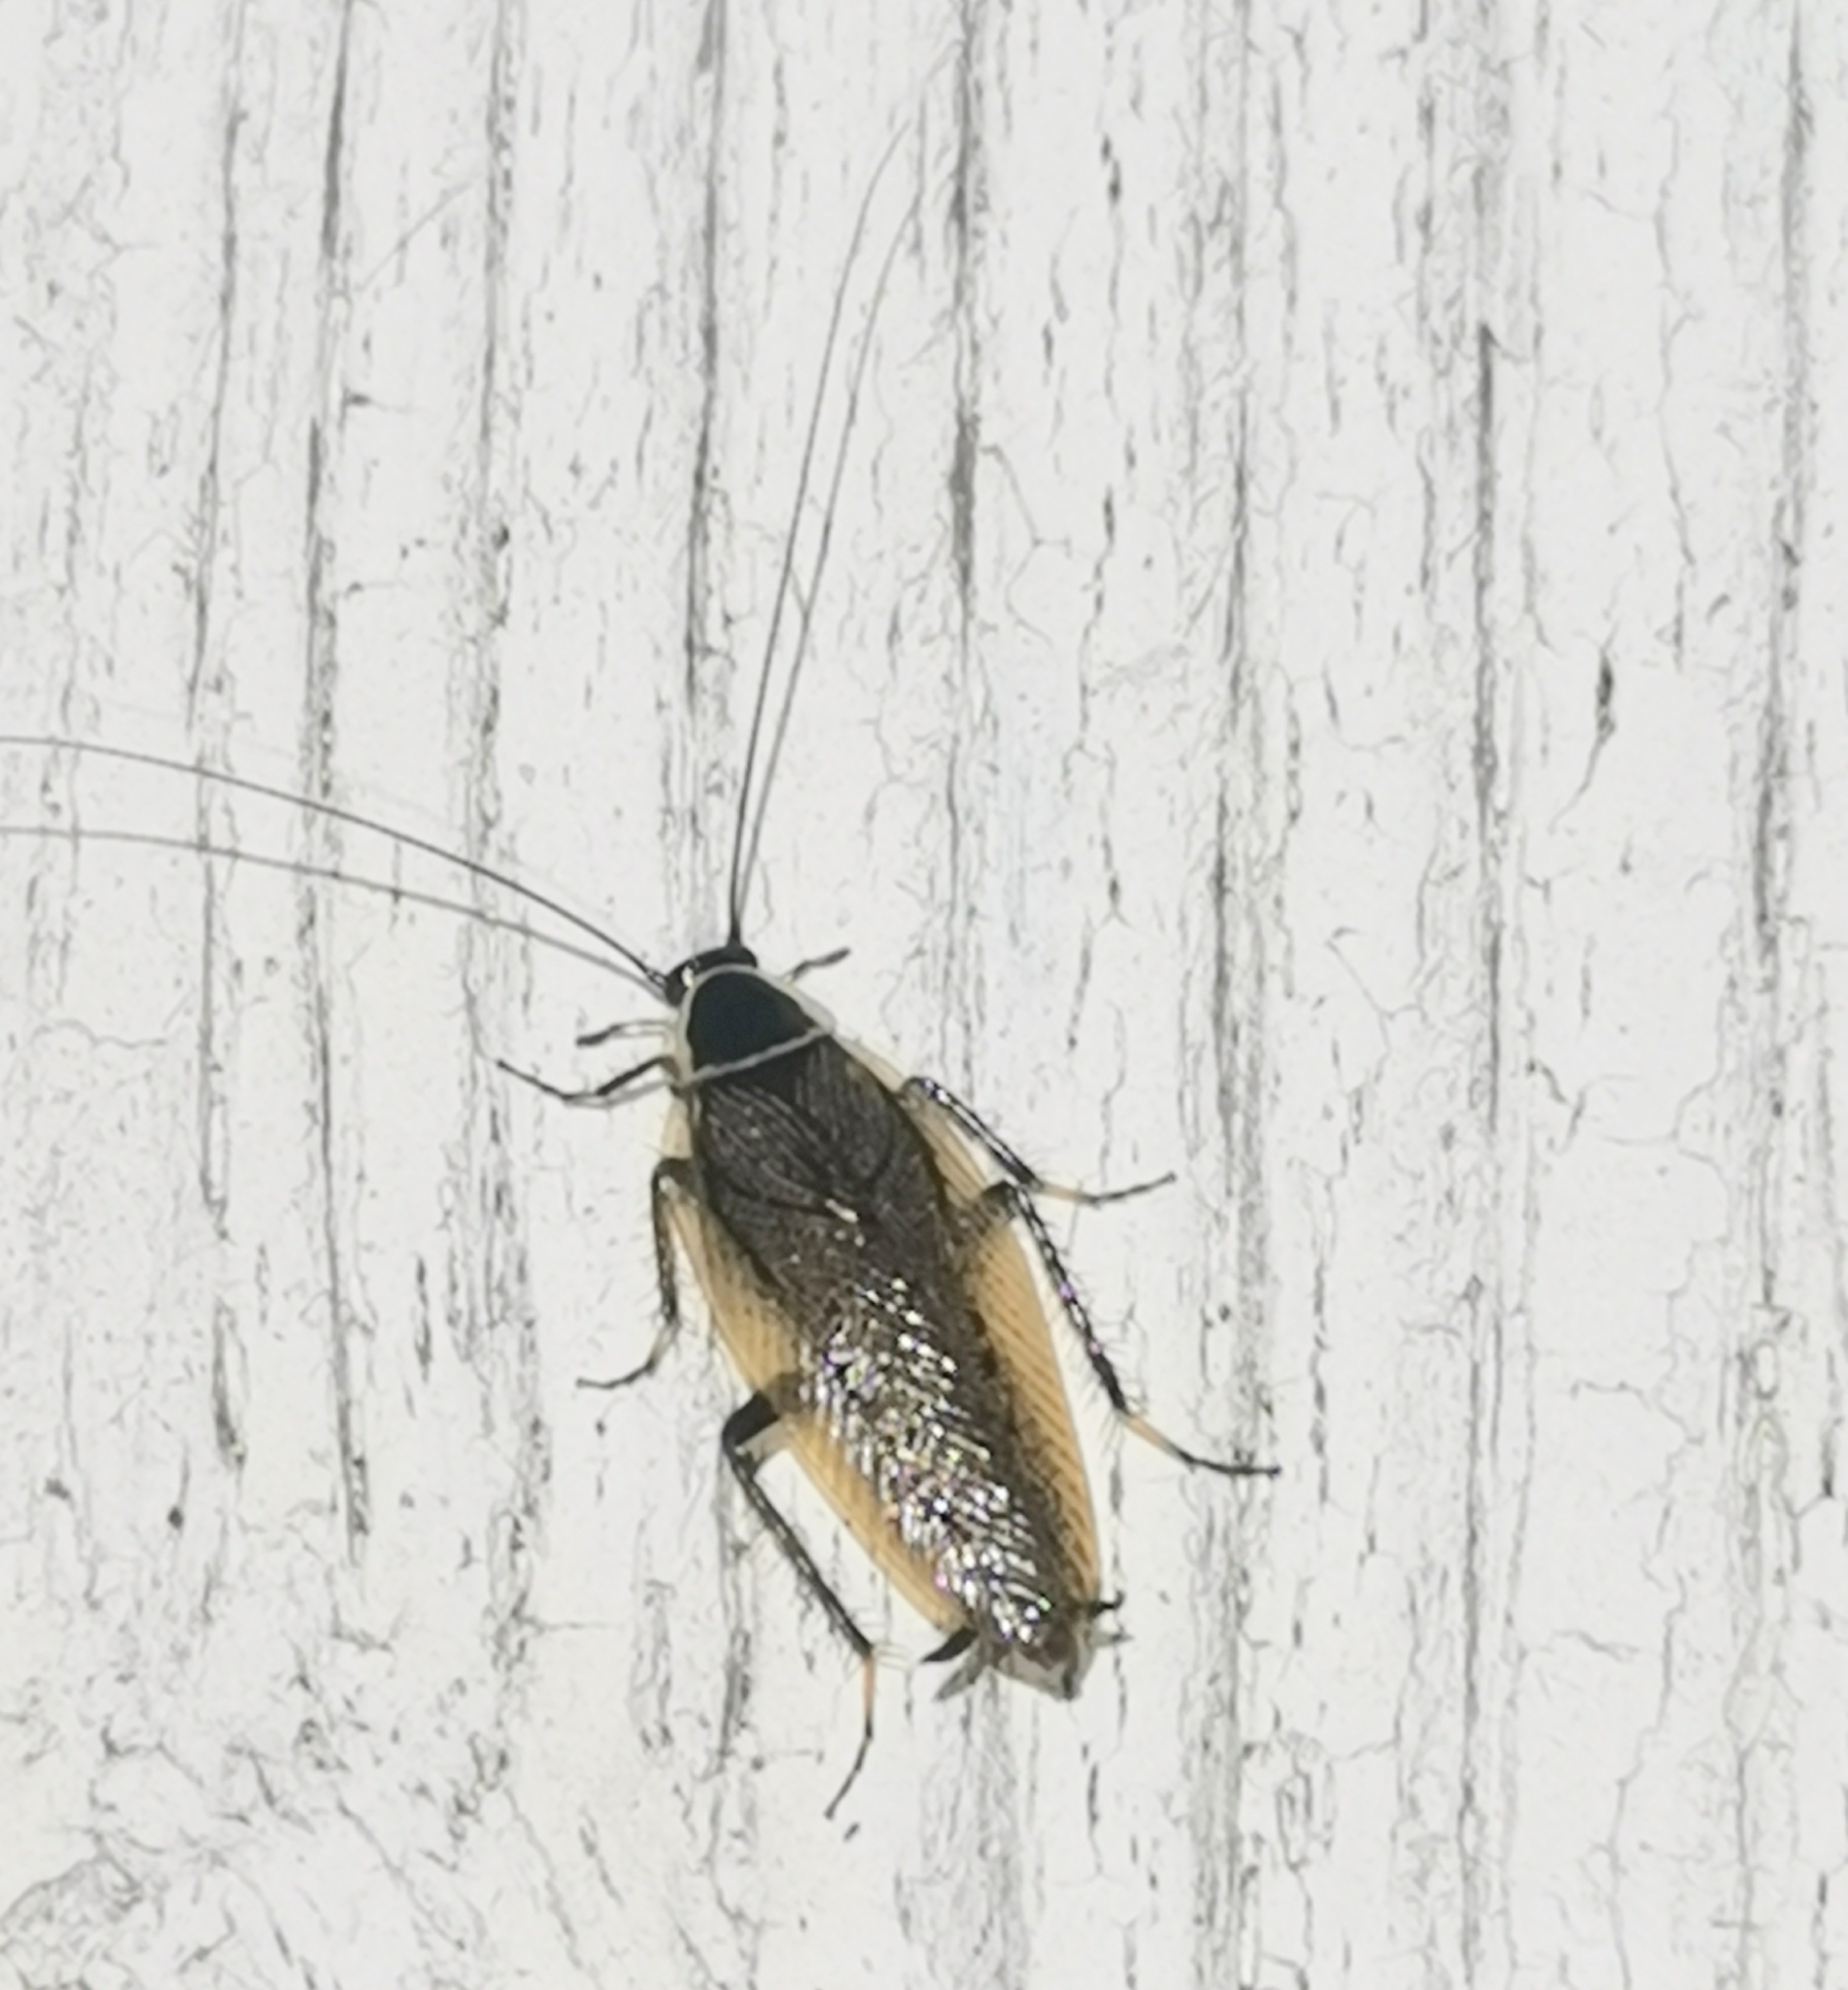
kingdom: Animalia
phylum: Arthropoda
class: Insecta
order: Blattodea
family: Ectobiidae
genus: Ectobius
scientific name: Ectobius sylvestris
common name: Forest cockroach
